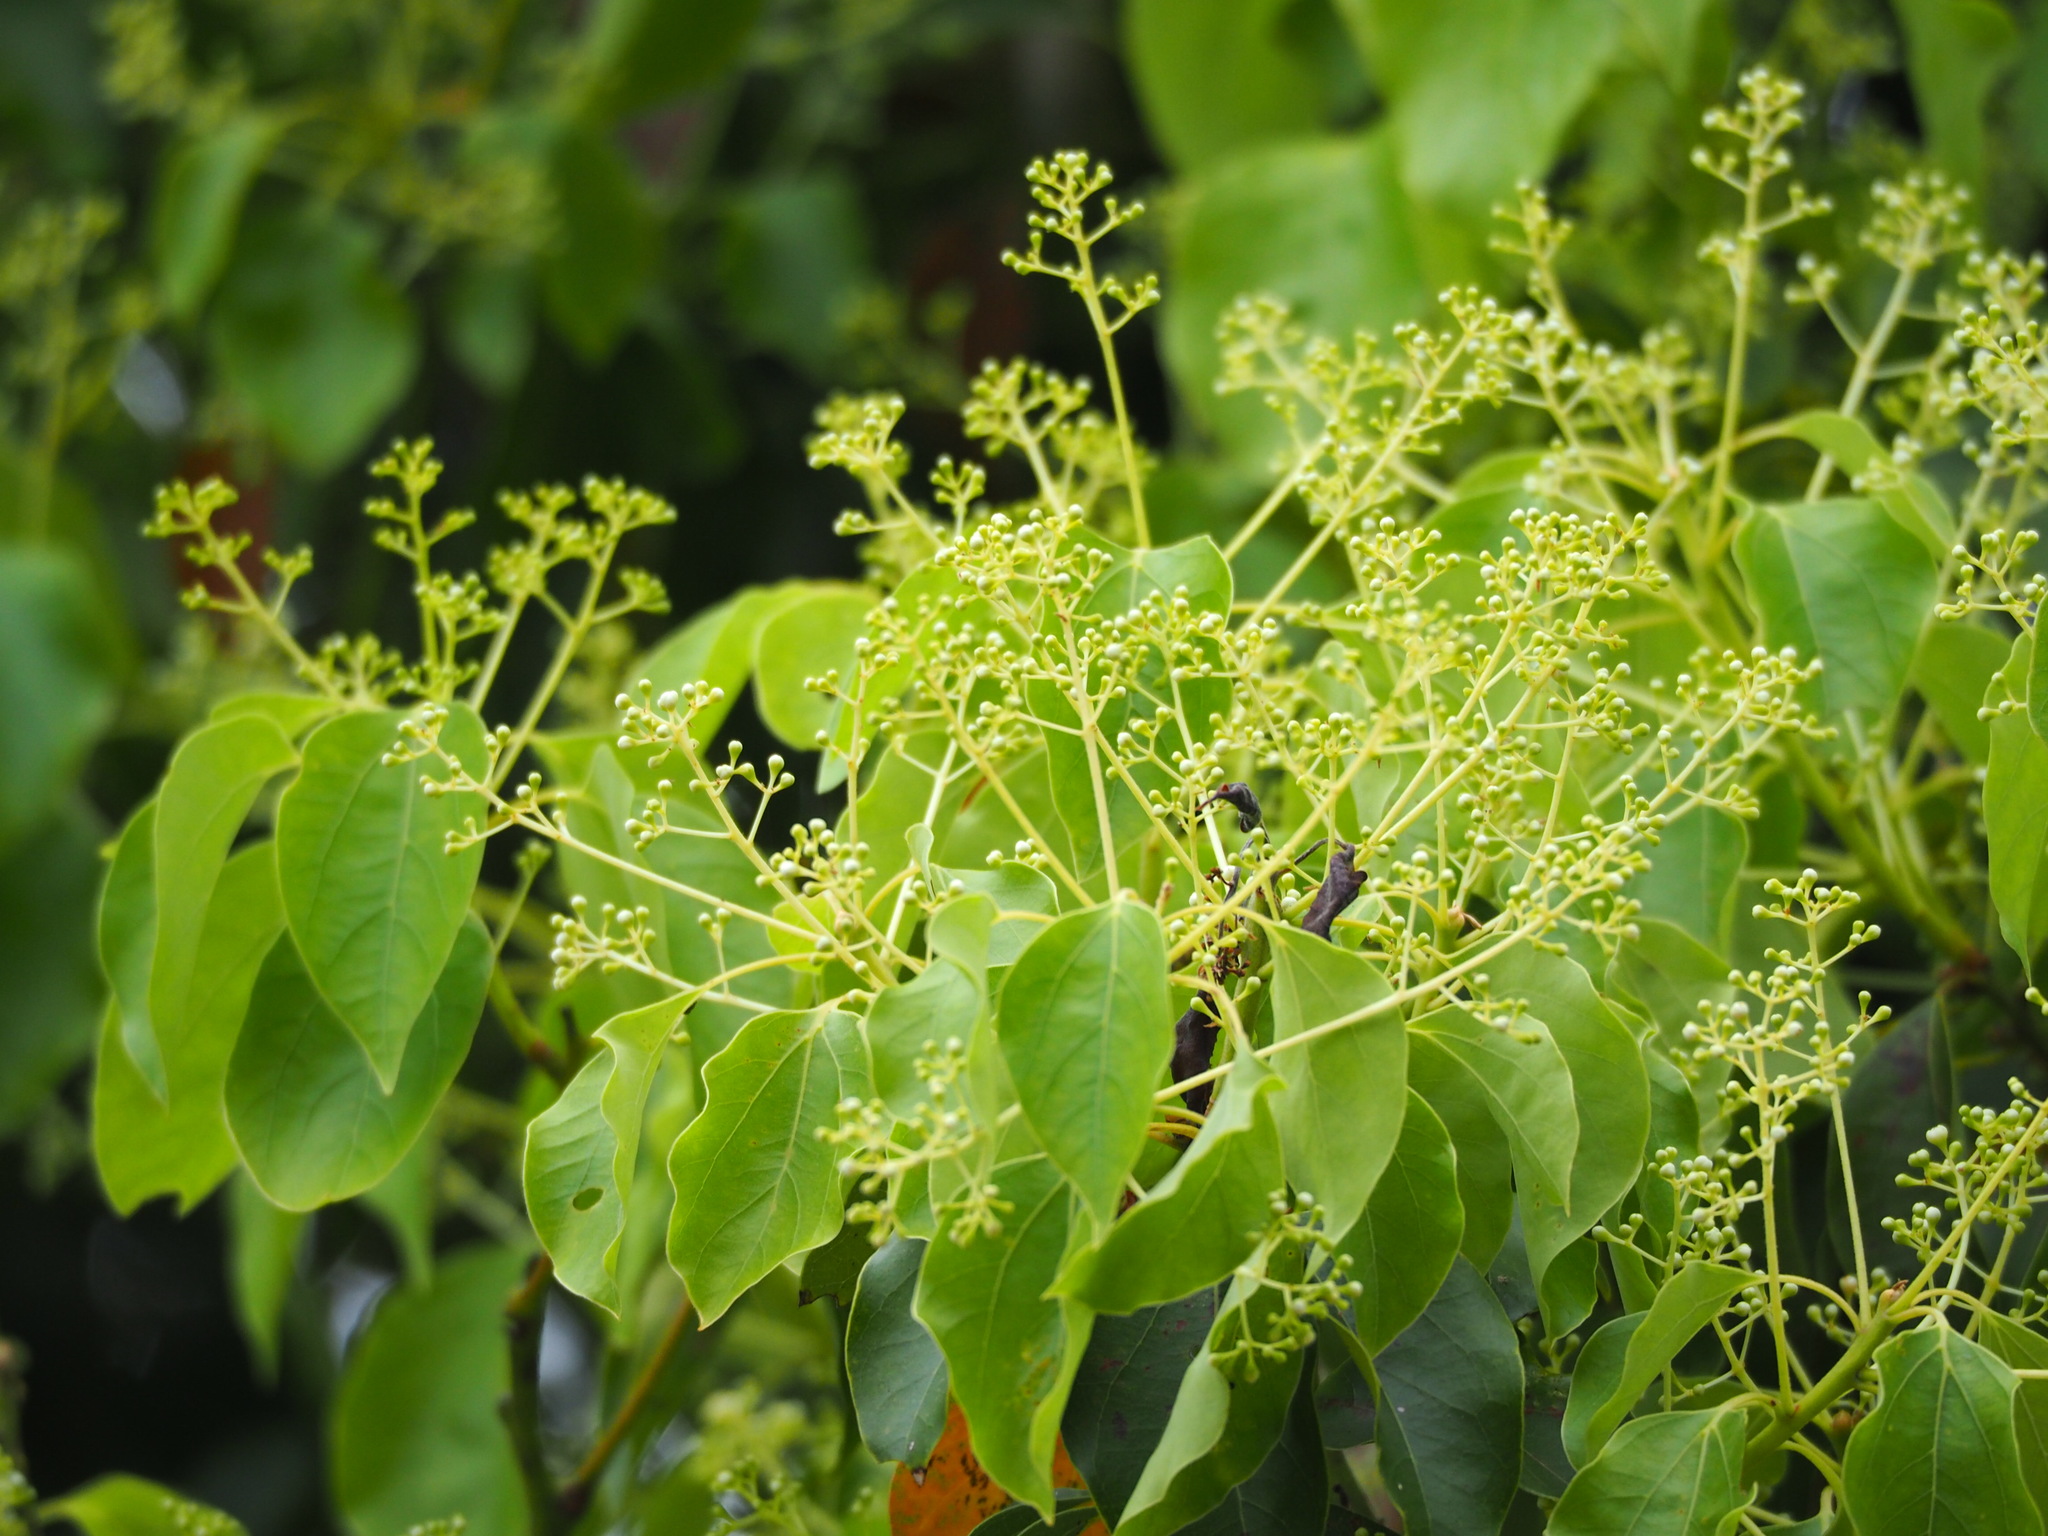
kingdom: Plantae
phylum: Tracheophyta
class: Magnoliopsida
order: Laurales
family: Lauraceae
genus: Cinnamomum
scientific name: Cinnamomum camphora
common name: Camphortree
